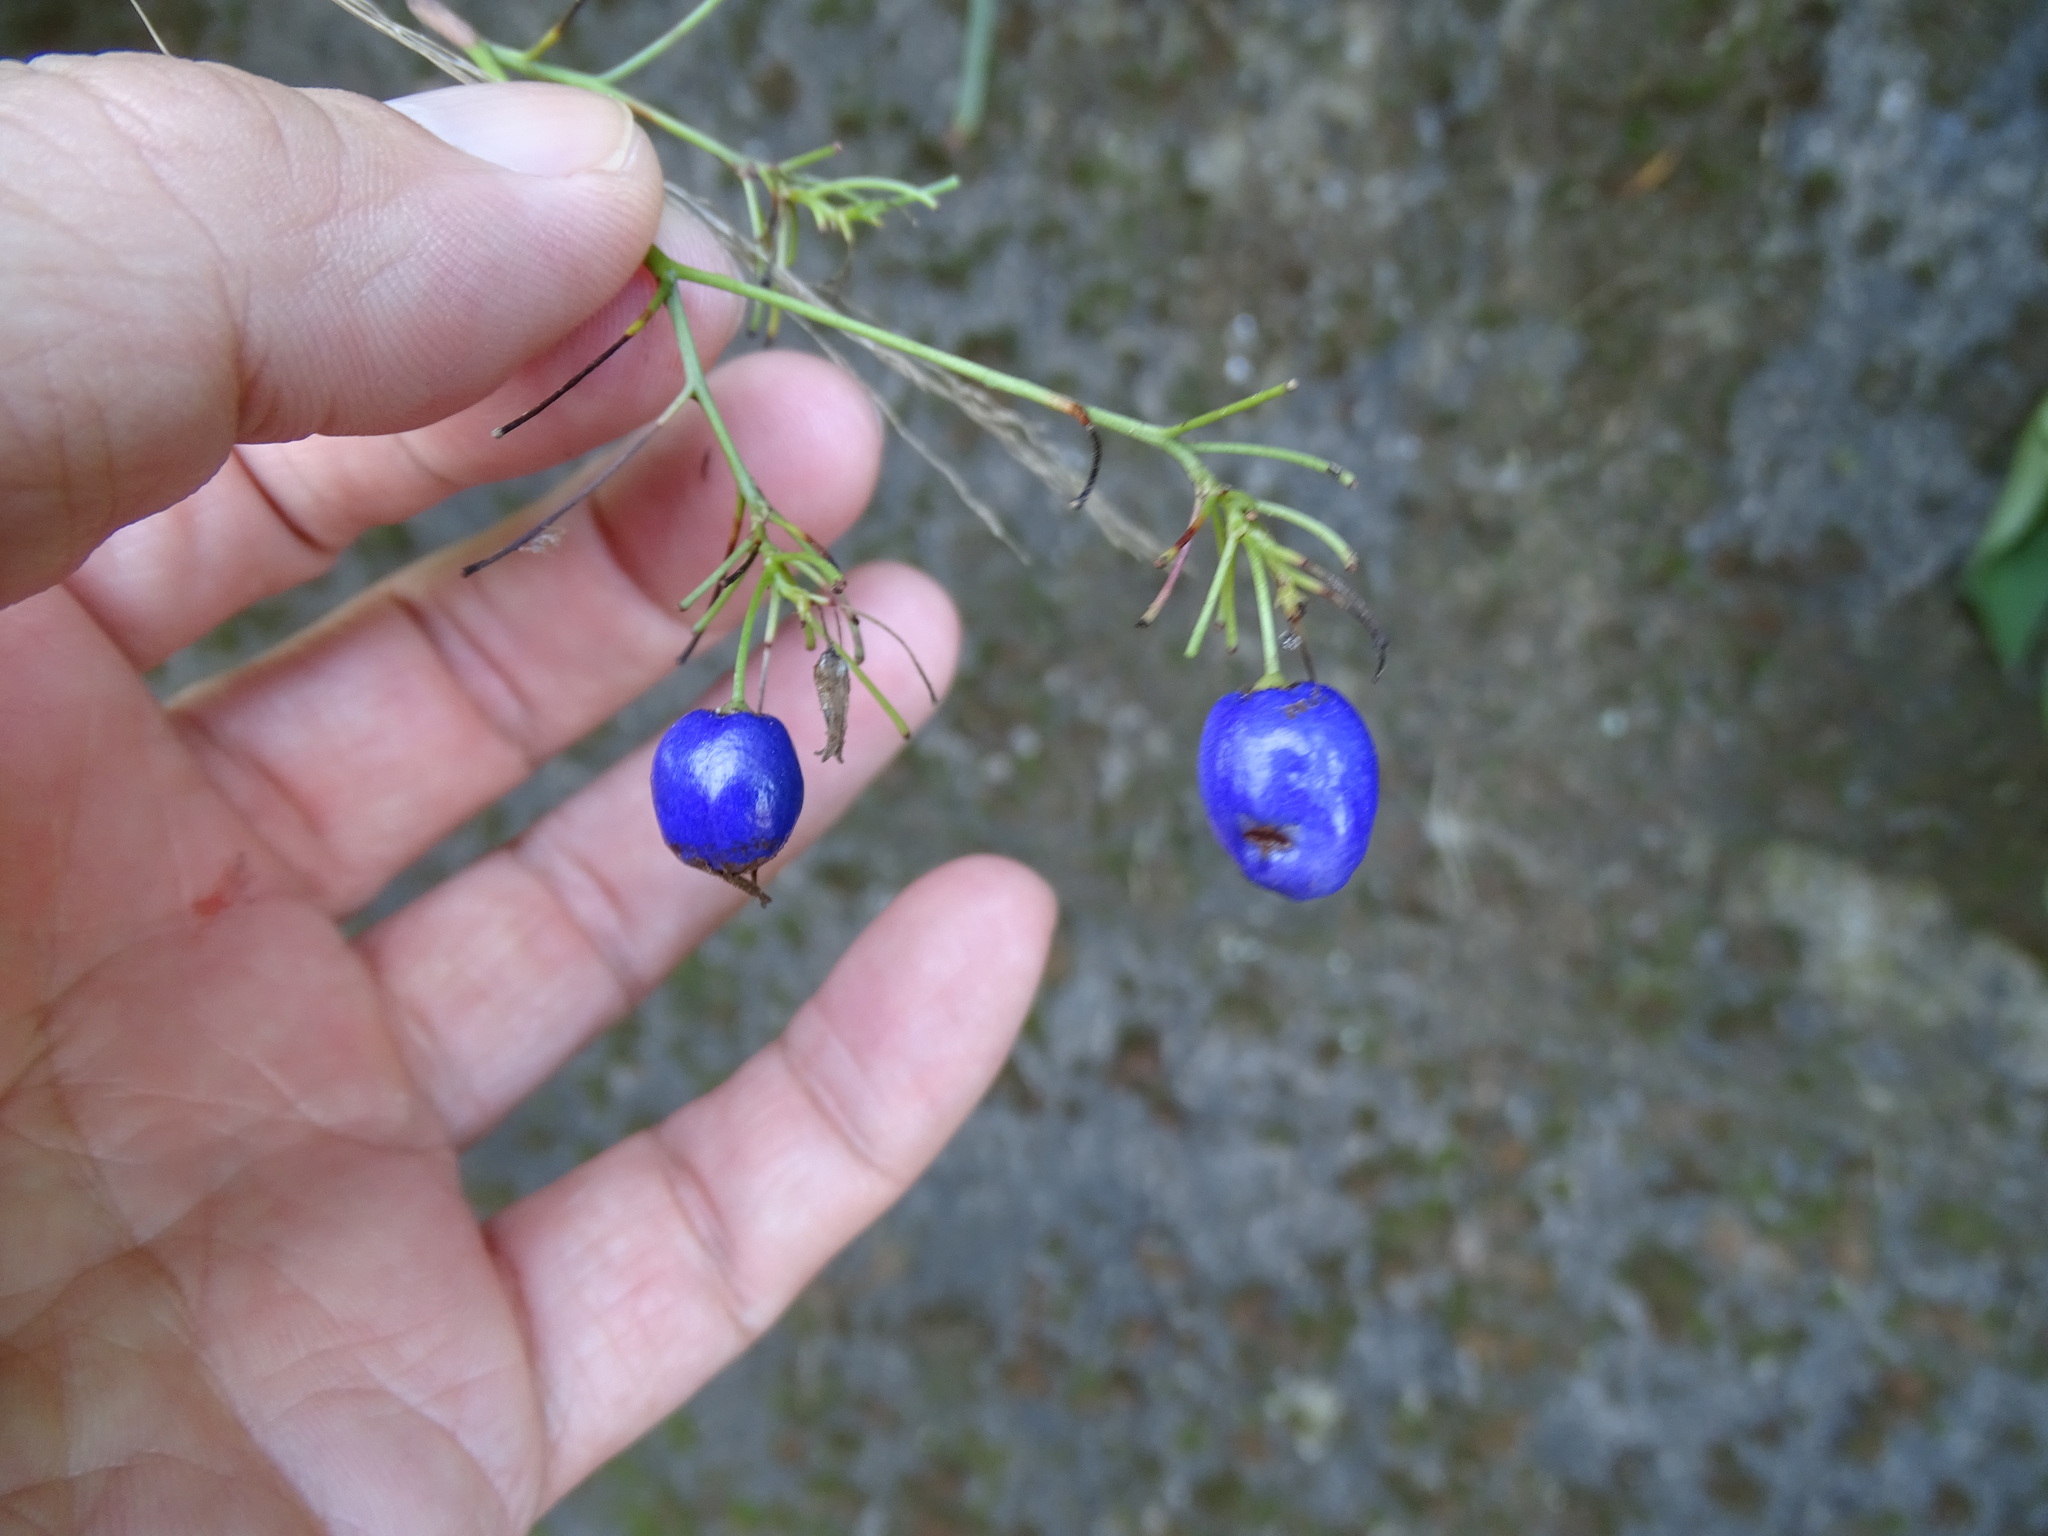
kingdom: Plantae
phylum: Tracheophyta
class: Liliopsida
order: Asparagales
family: Asphodelaceae
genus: Dianella
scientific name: Dianella ensifolia
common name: New zealand lilyplant
